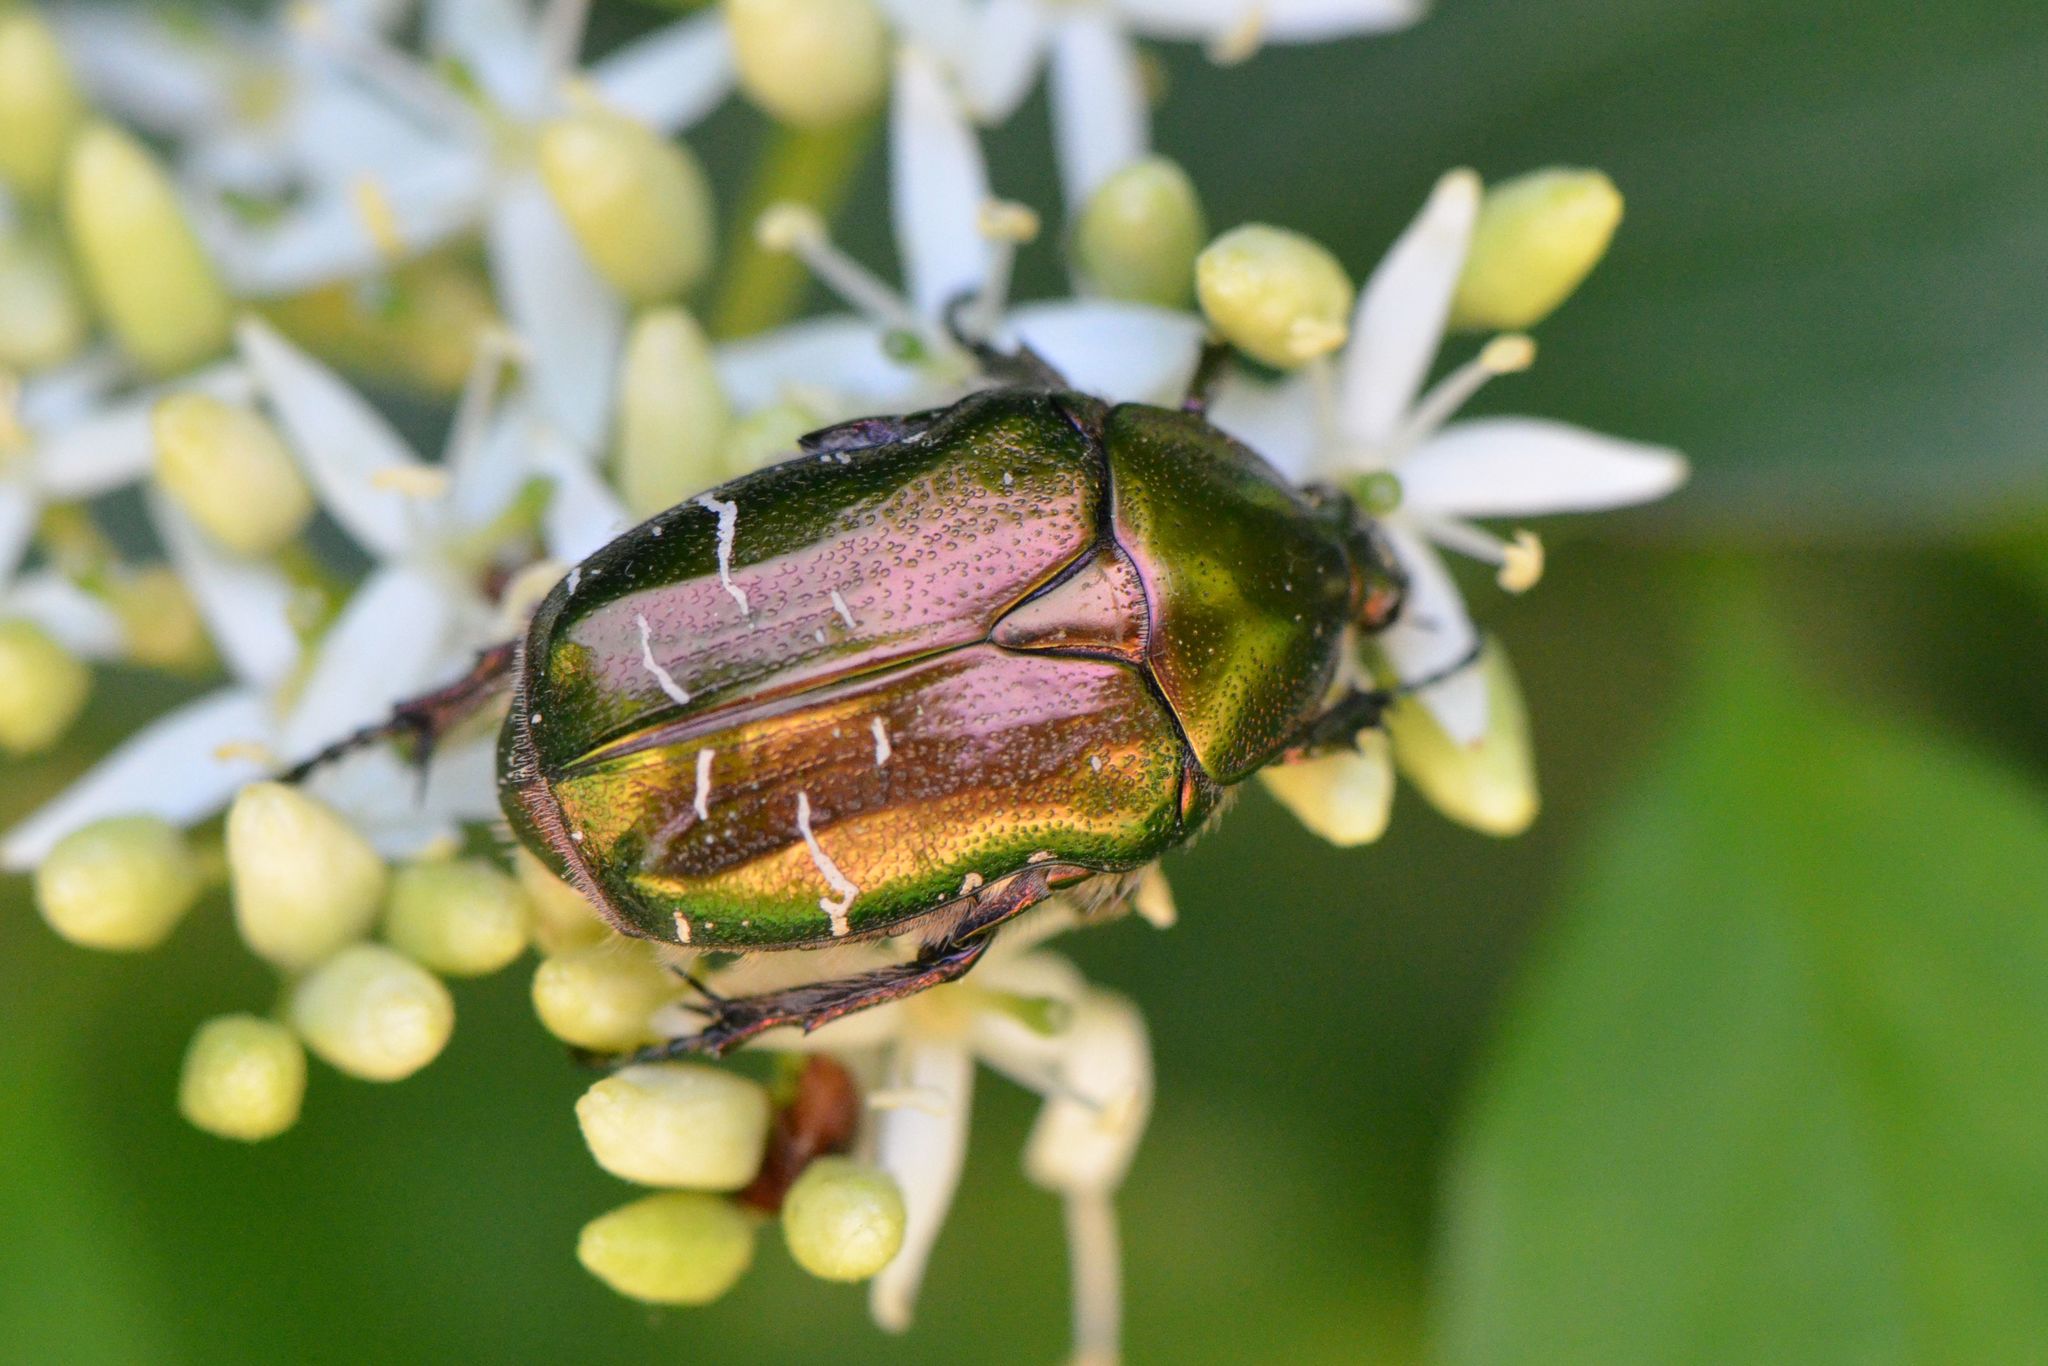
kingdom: Animalia
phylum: Arthropoda
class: Insecta
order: Coleoptera
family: Scarabaeidae
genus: Cetonia
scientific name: Cetonia aurata
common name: Rose chafer
